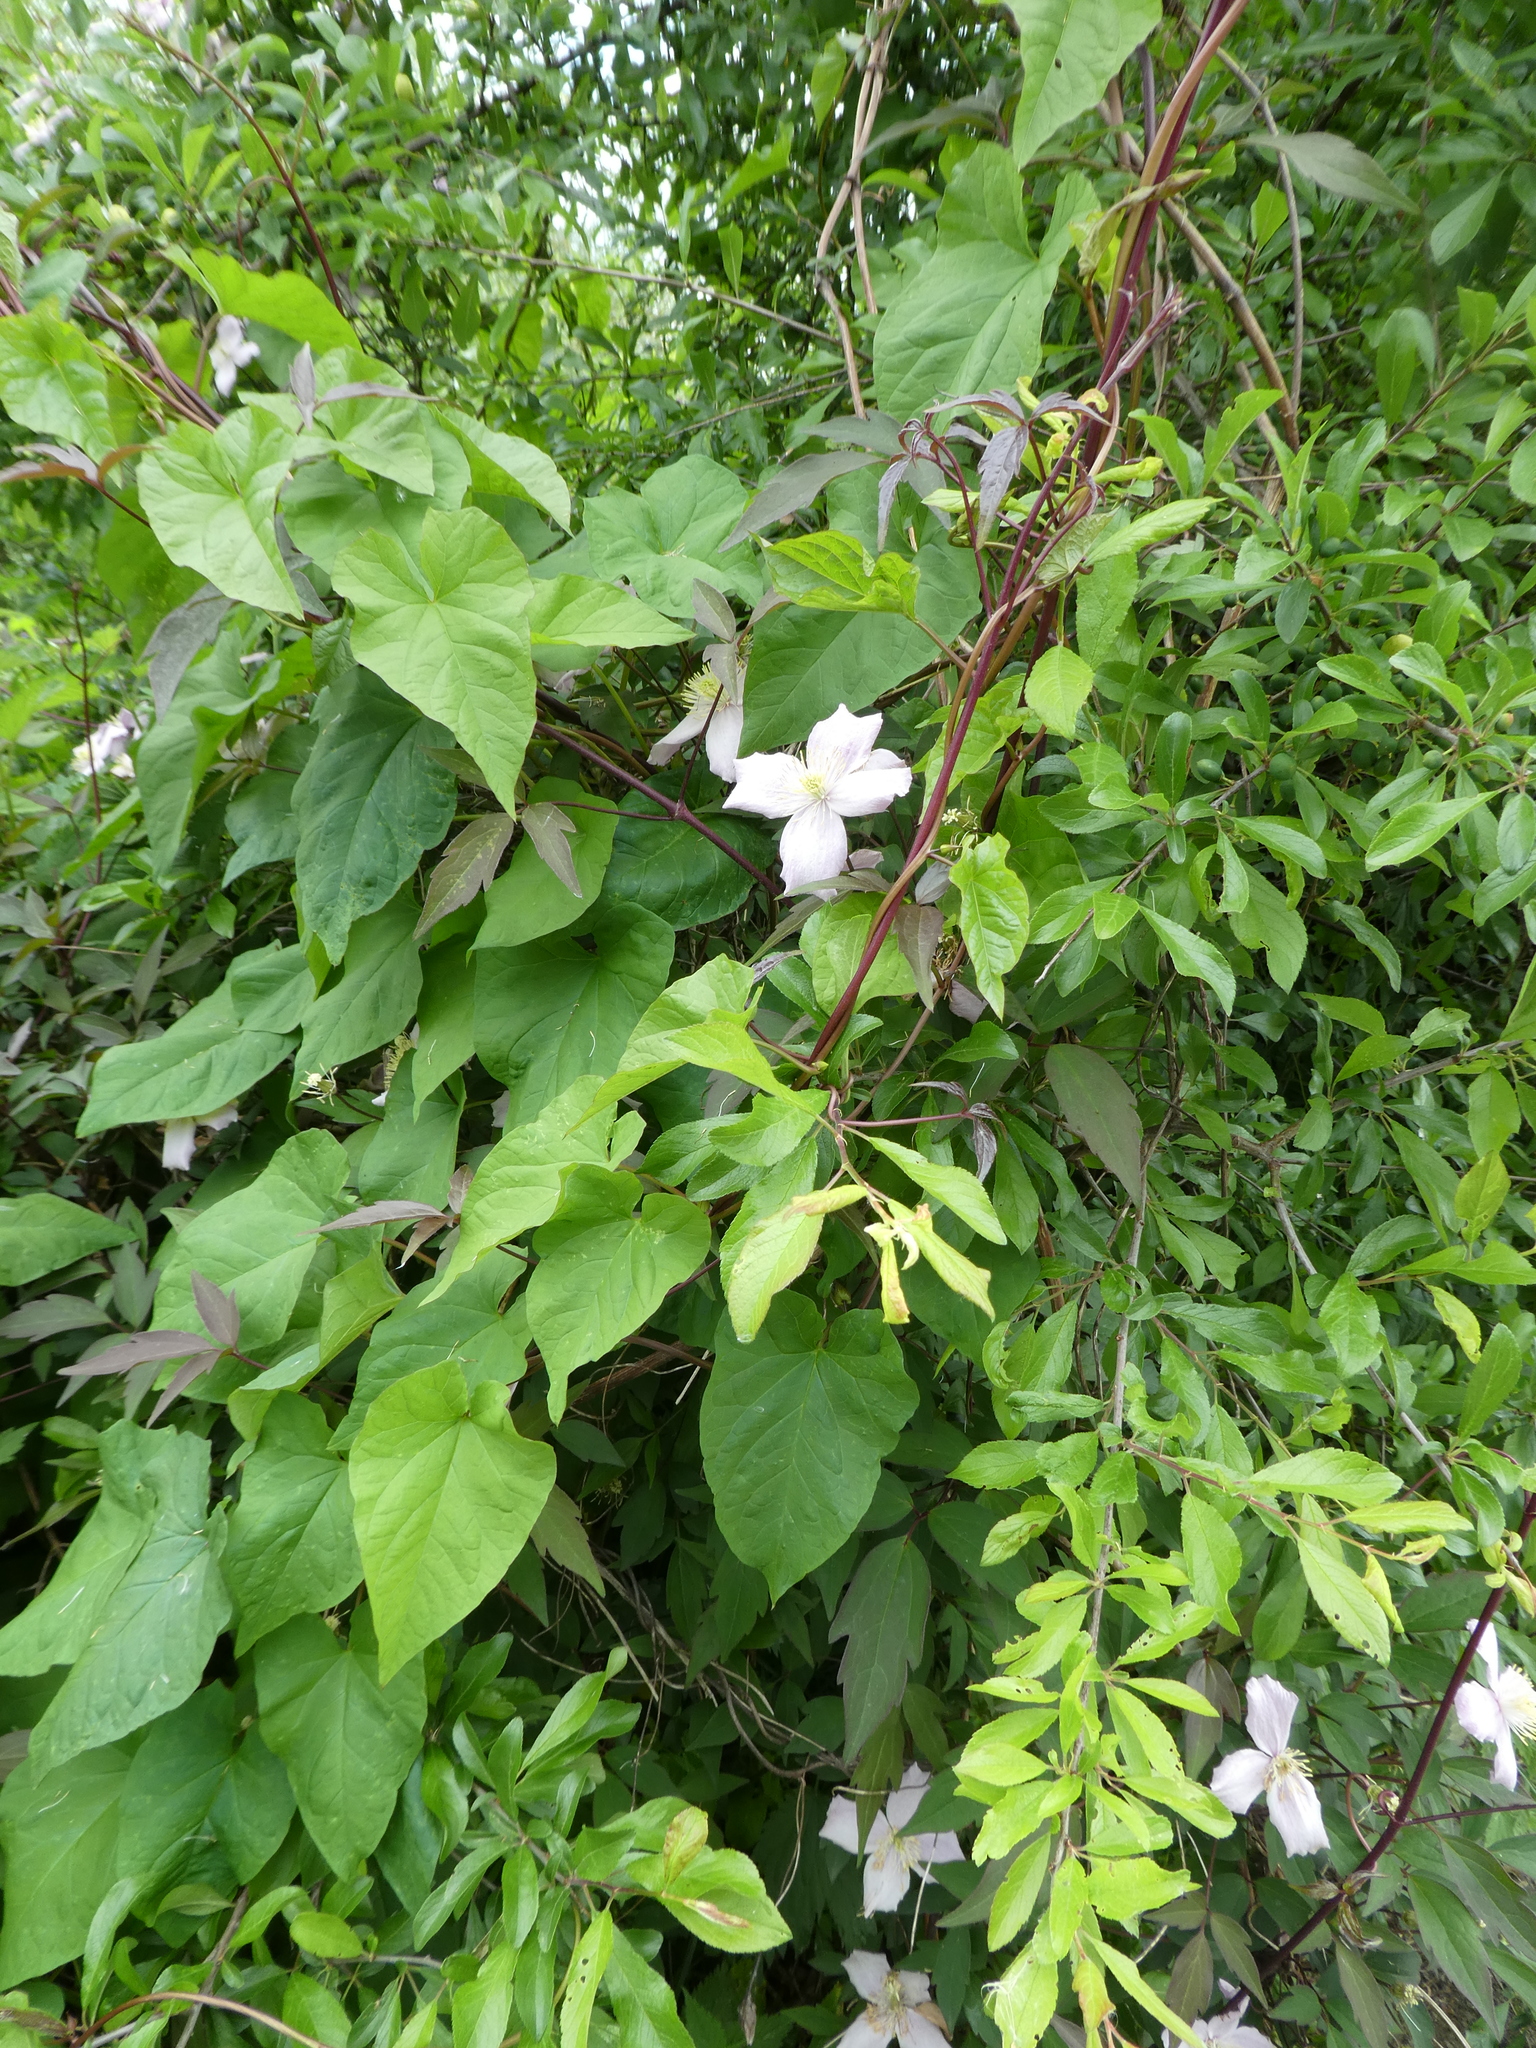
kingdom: Plantae
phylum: Tracheophyta
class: Magnoliopsida
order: Ranunculales
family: Ranunculaceae
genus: Clematis
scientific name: Clematis montana
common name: Himalayan clematis
